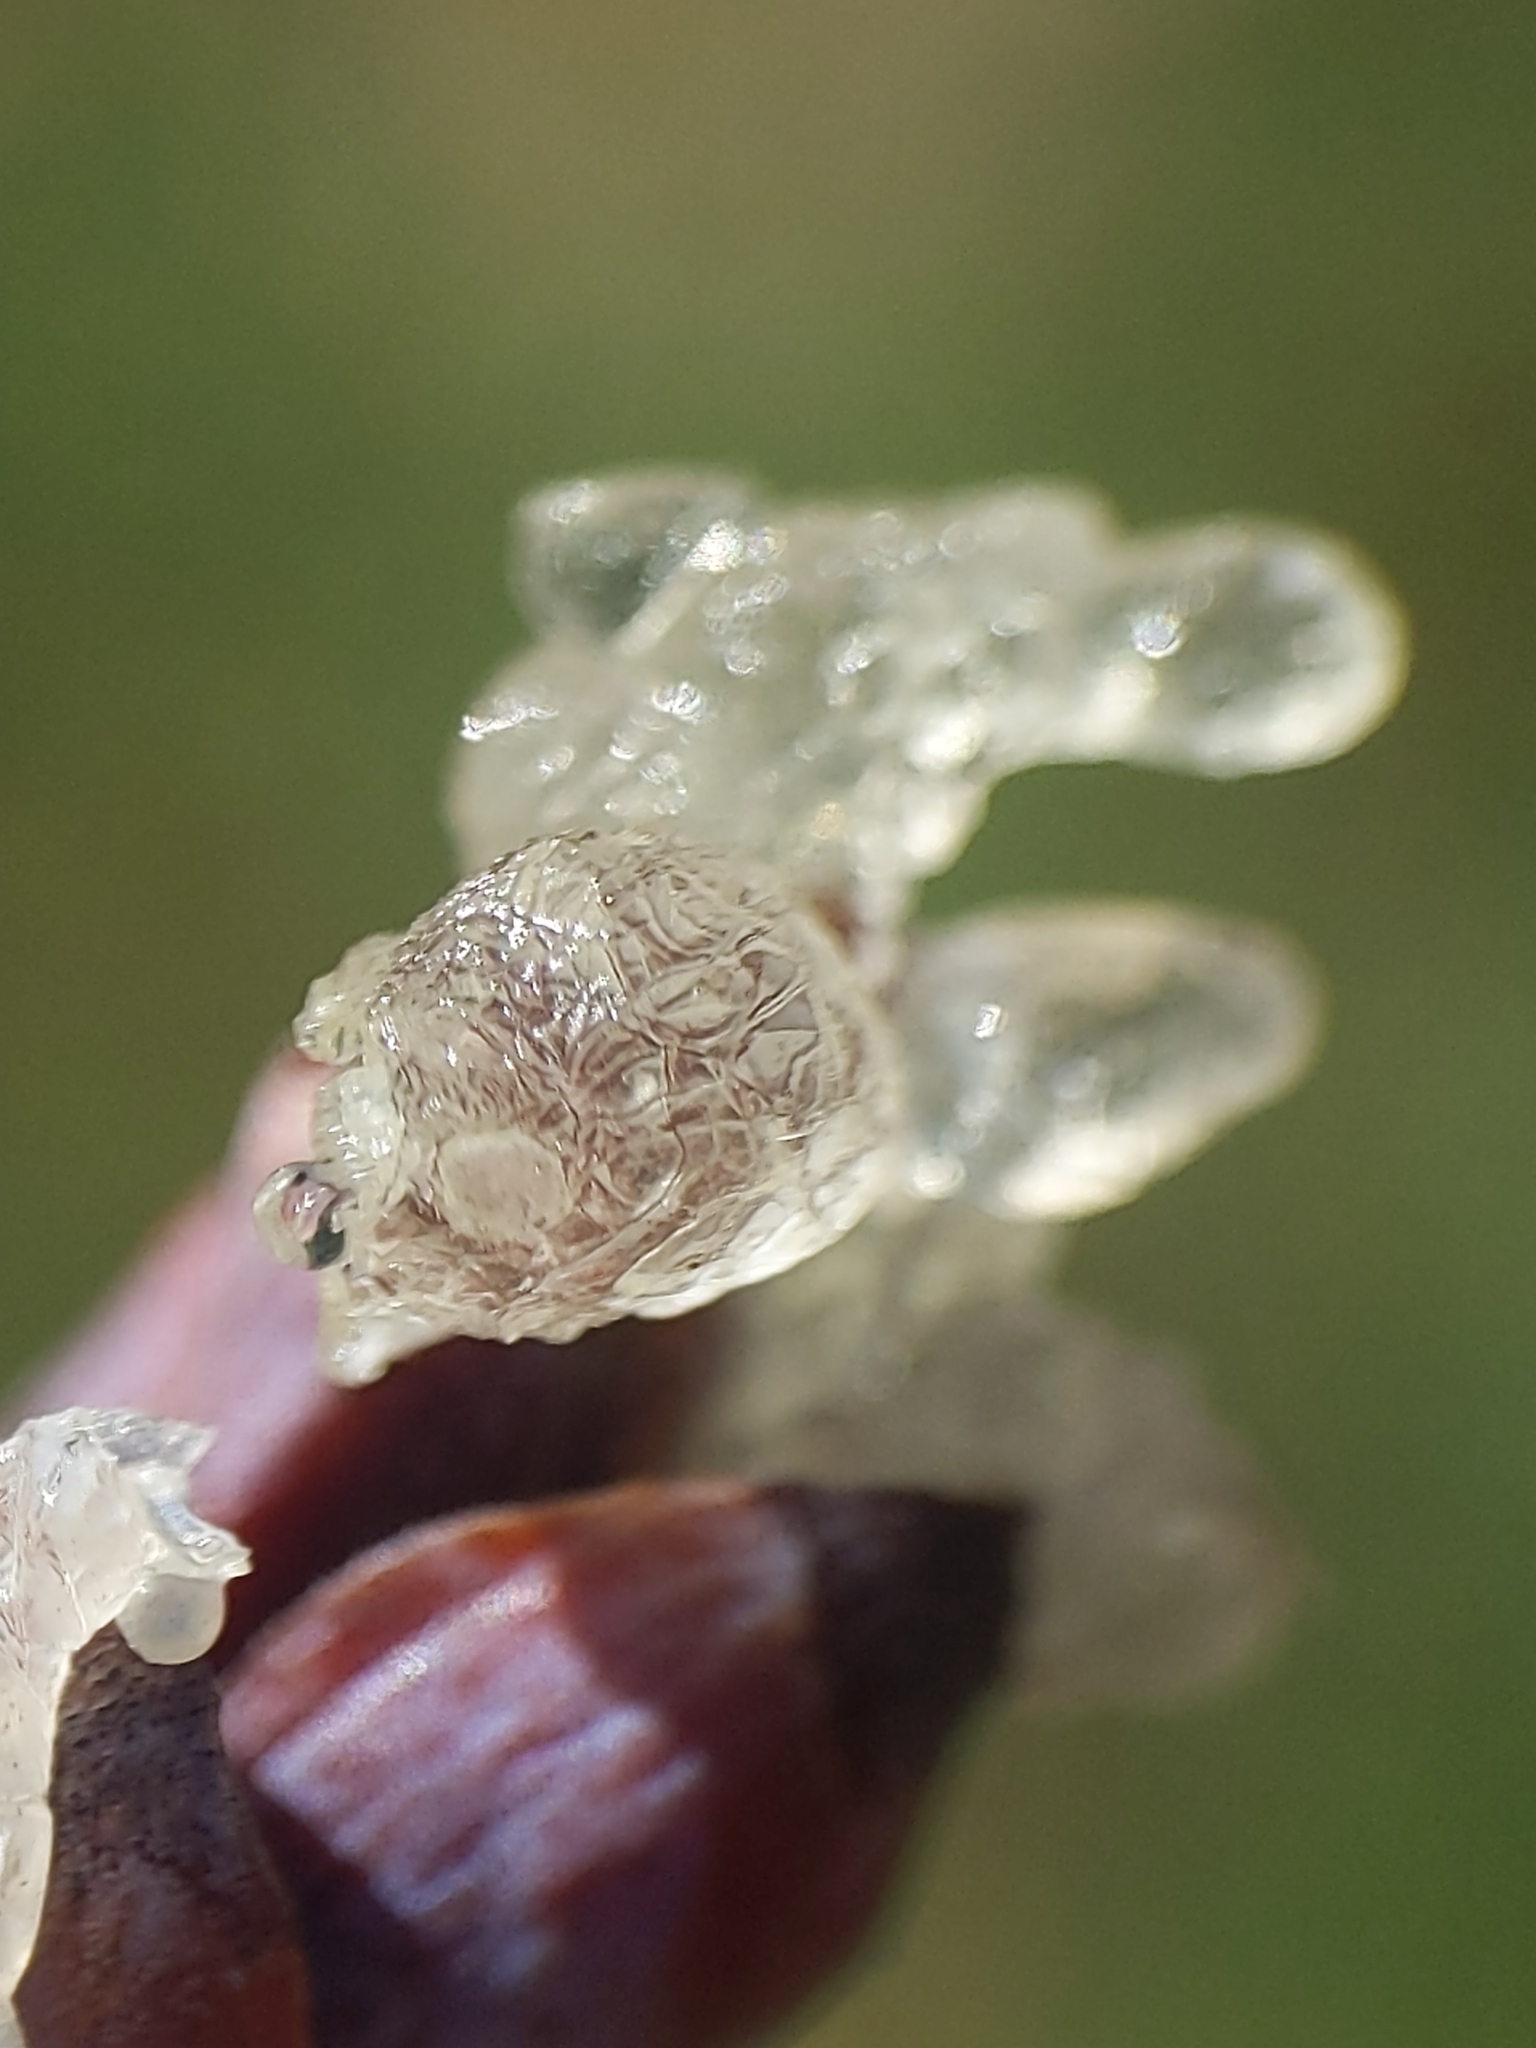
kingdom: Plantae
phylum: Tracheophyta
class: Pinopsida
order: Pinales
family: Pinaceae
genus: Pinus
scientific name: Pinus strobus
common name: Weymouth pine
